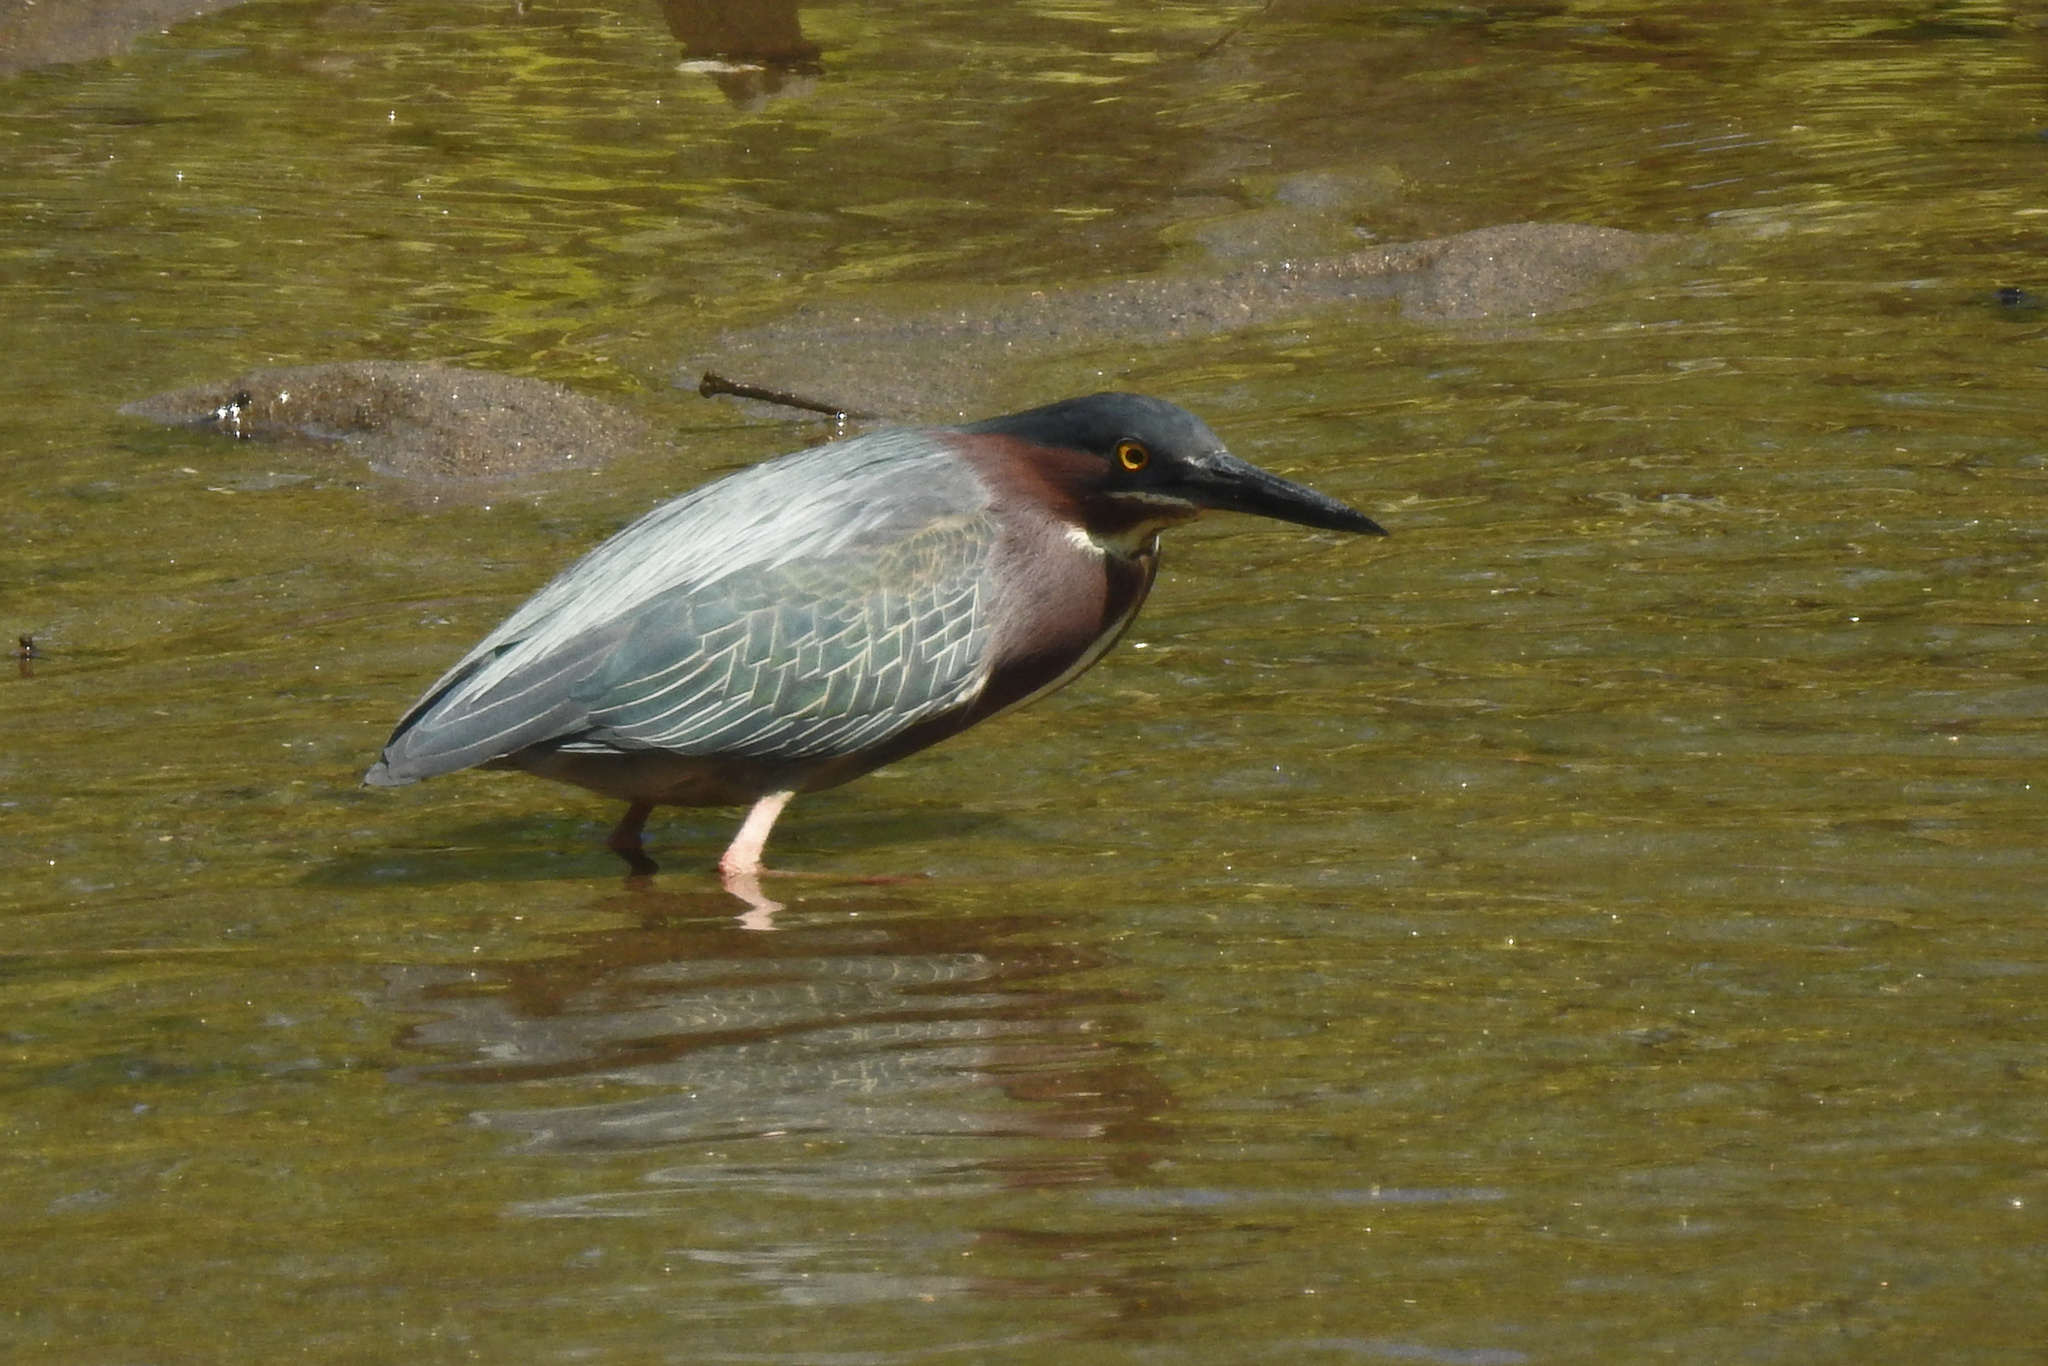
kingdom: Animalia
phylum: Chordata
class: Aves
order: Pelecaniformes
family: Ardeidae
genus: Butorides
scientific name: Butorides virescens
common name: Green heron
